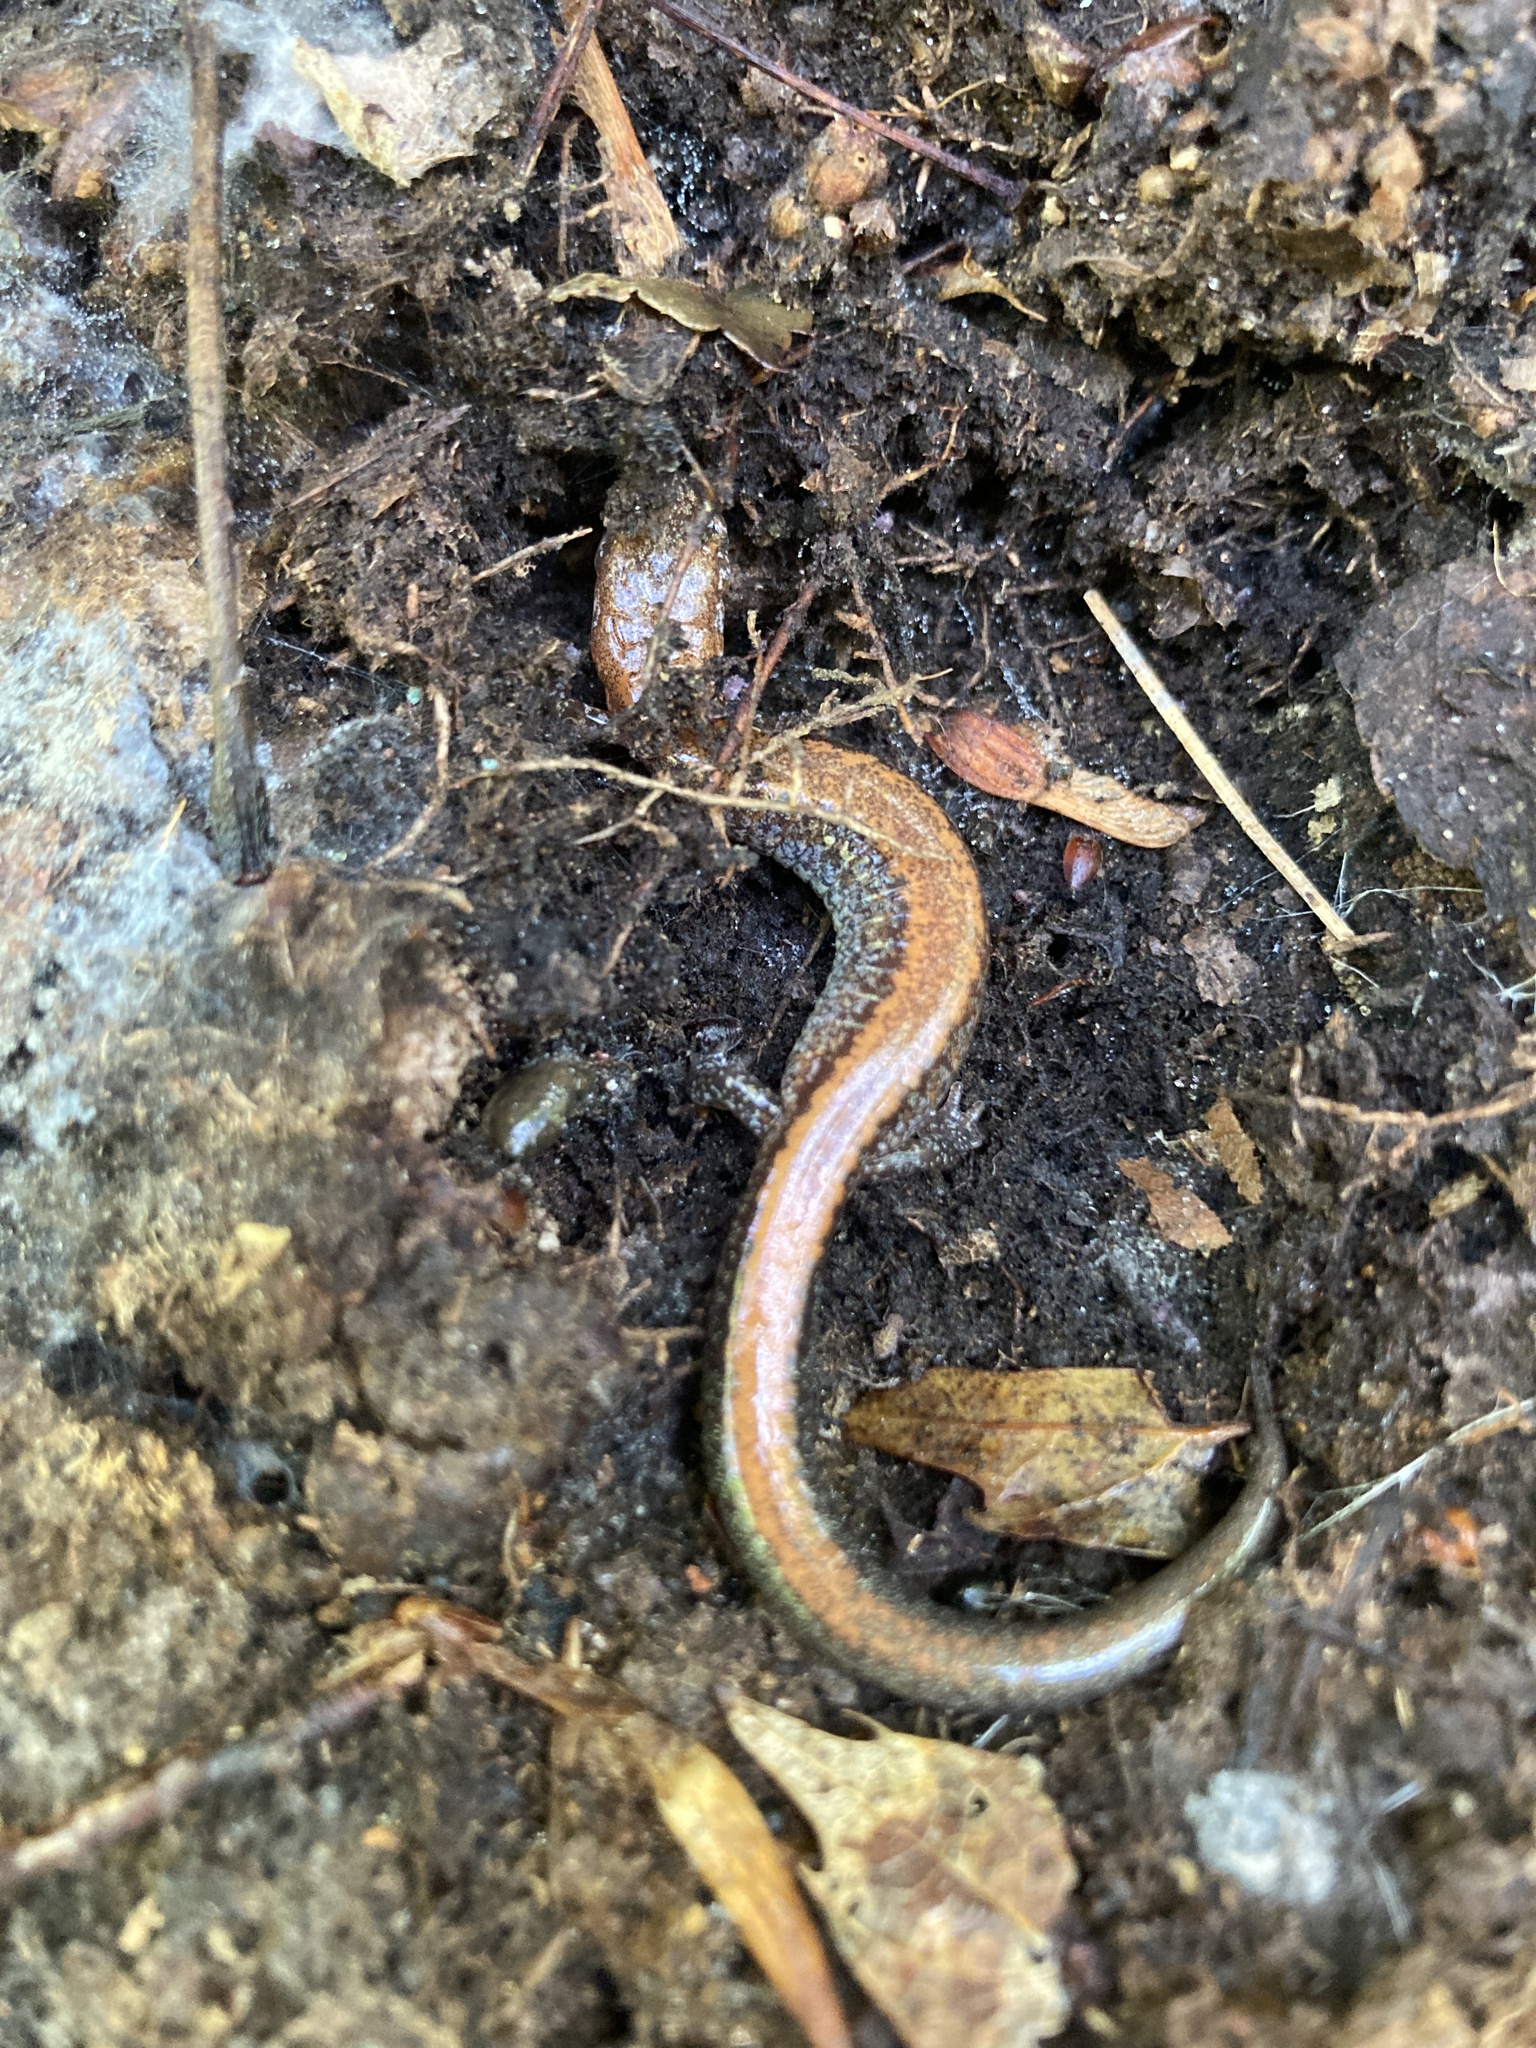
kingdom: Animalia
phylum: Chordata
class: Amphibia
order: Caudata
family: Plethodontidae
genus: Plethodon
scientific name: Plethodon cinereus
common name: Redback salamander
